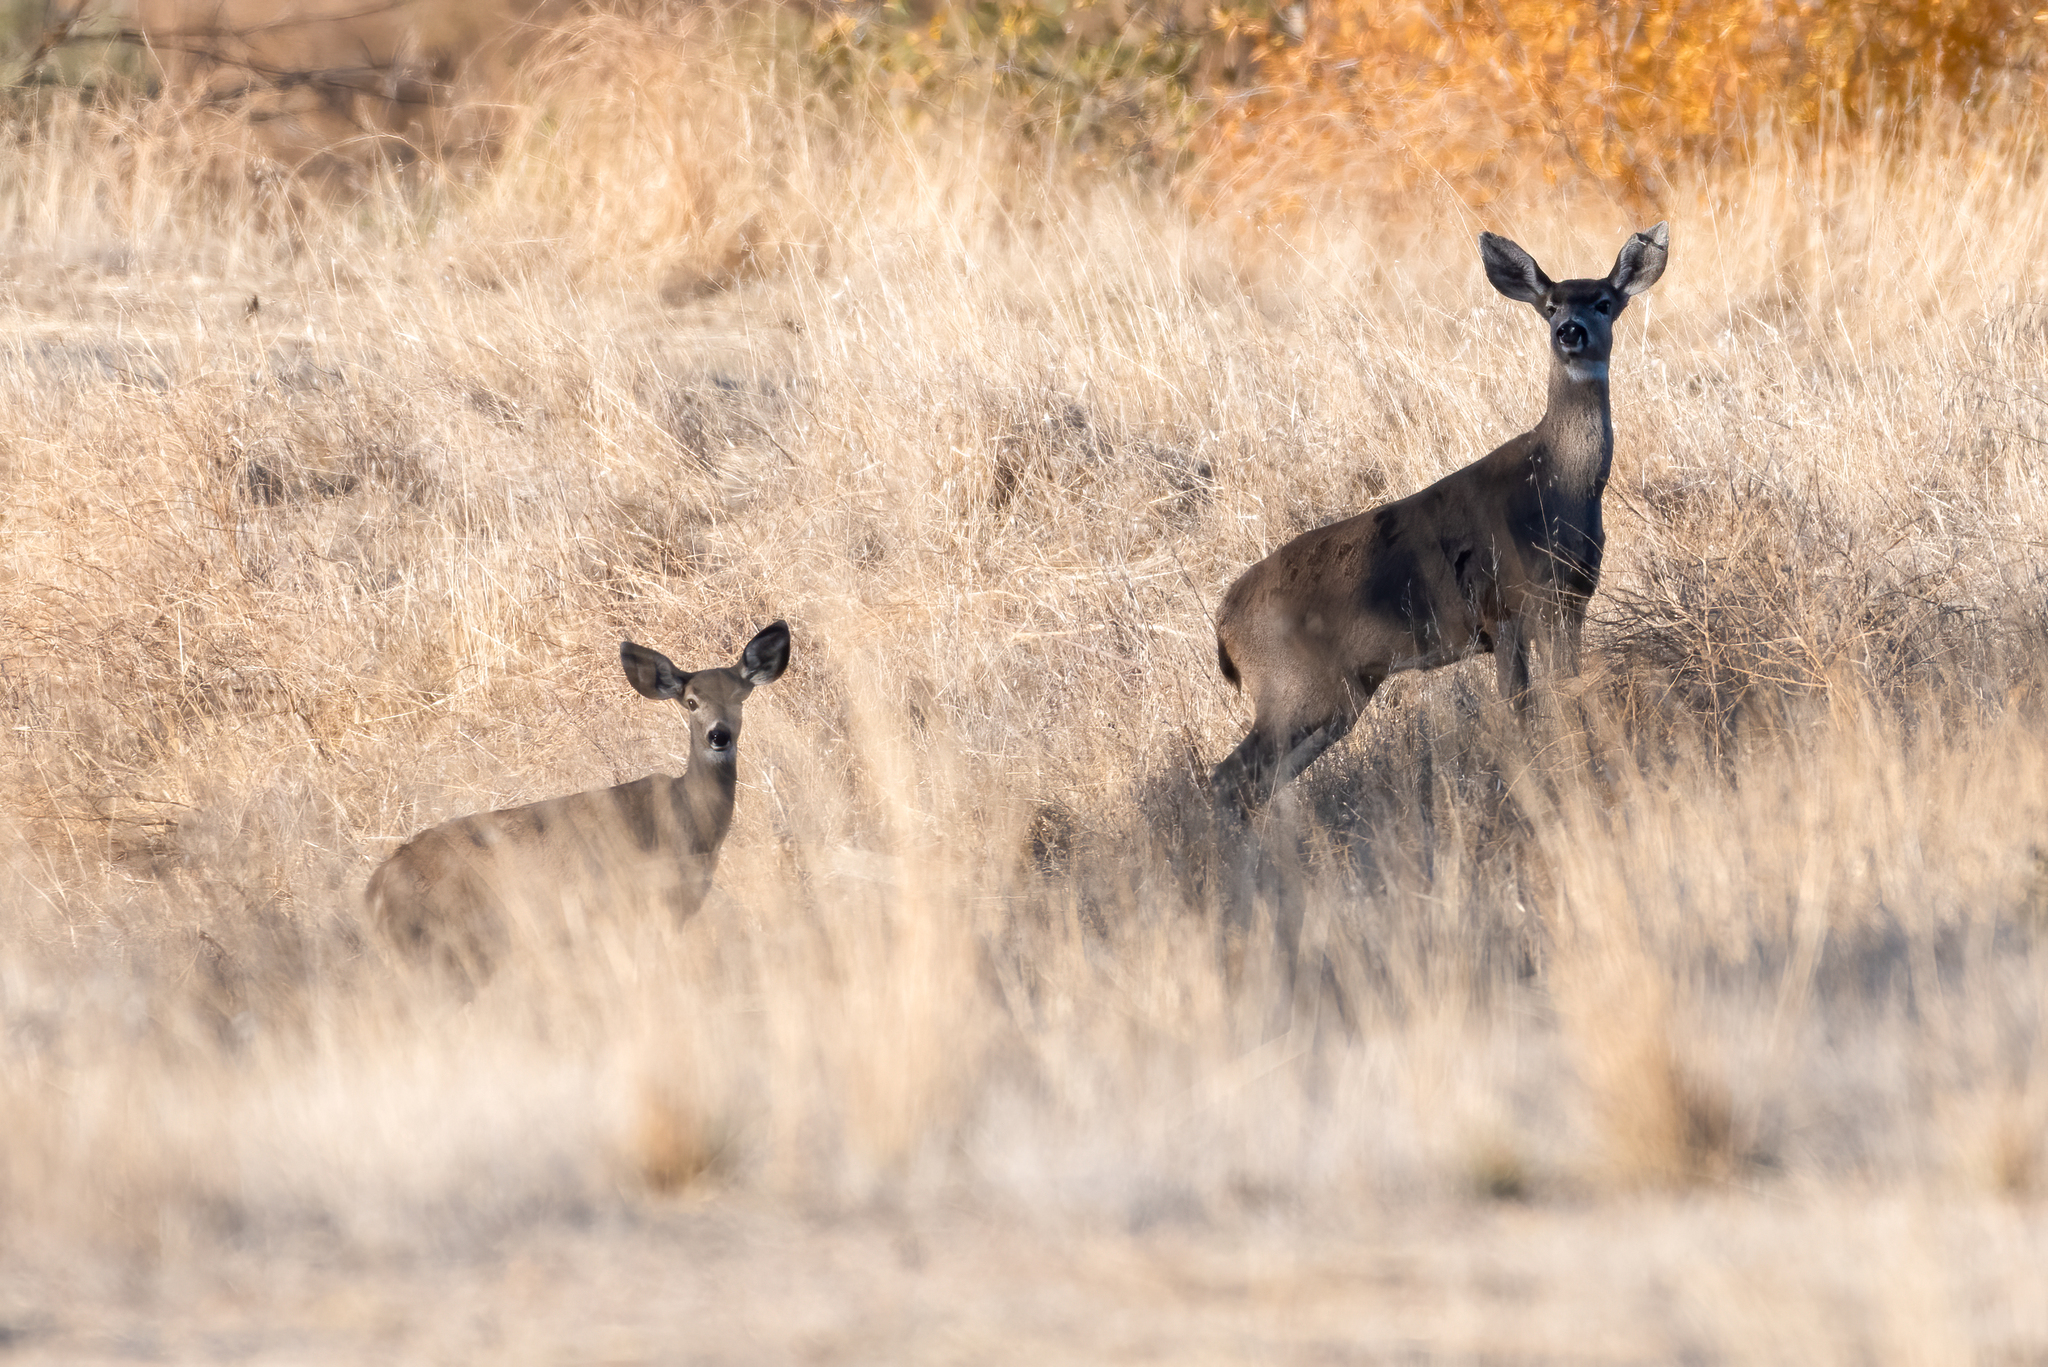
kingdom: Animalia
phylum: Chordata
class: Mammalia
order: Artiodactyla
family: Cervidae
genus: Odocoileus
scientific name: Odocoileus hemionus
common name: Mule deer
